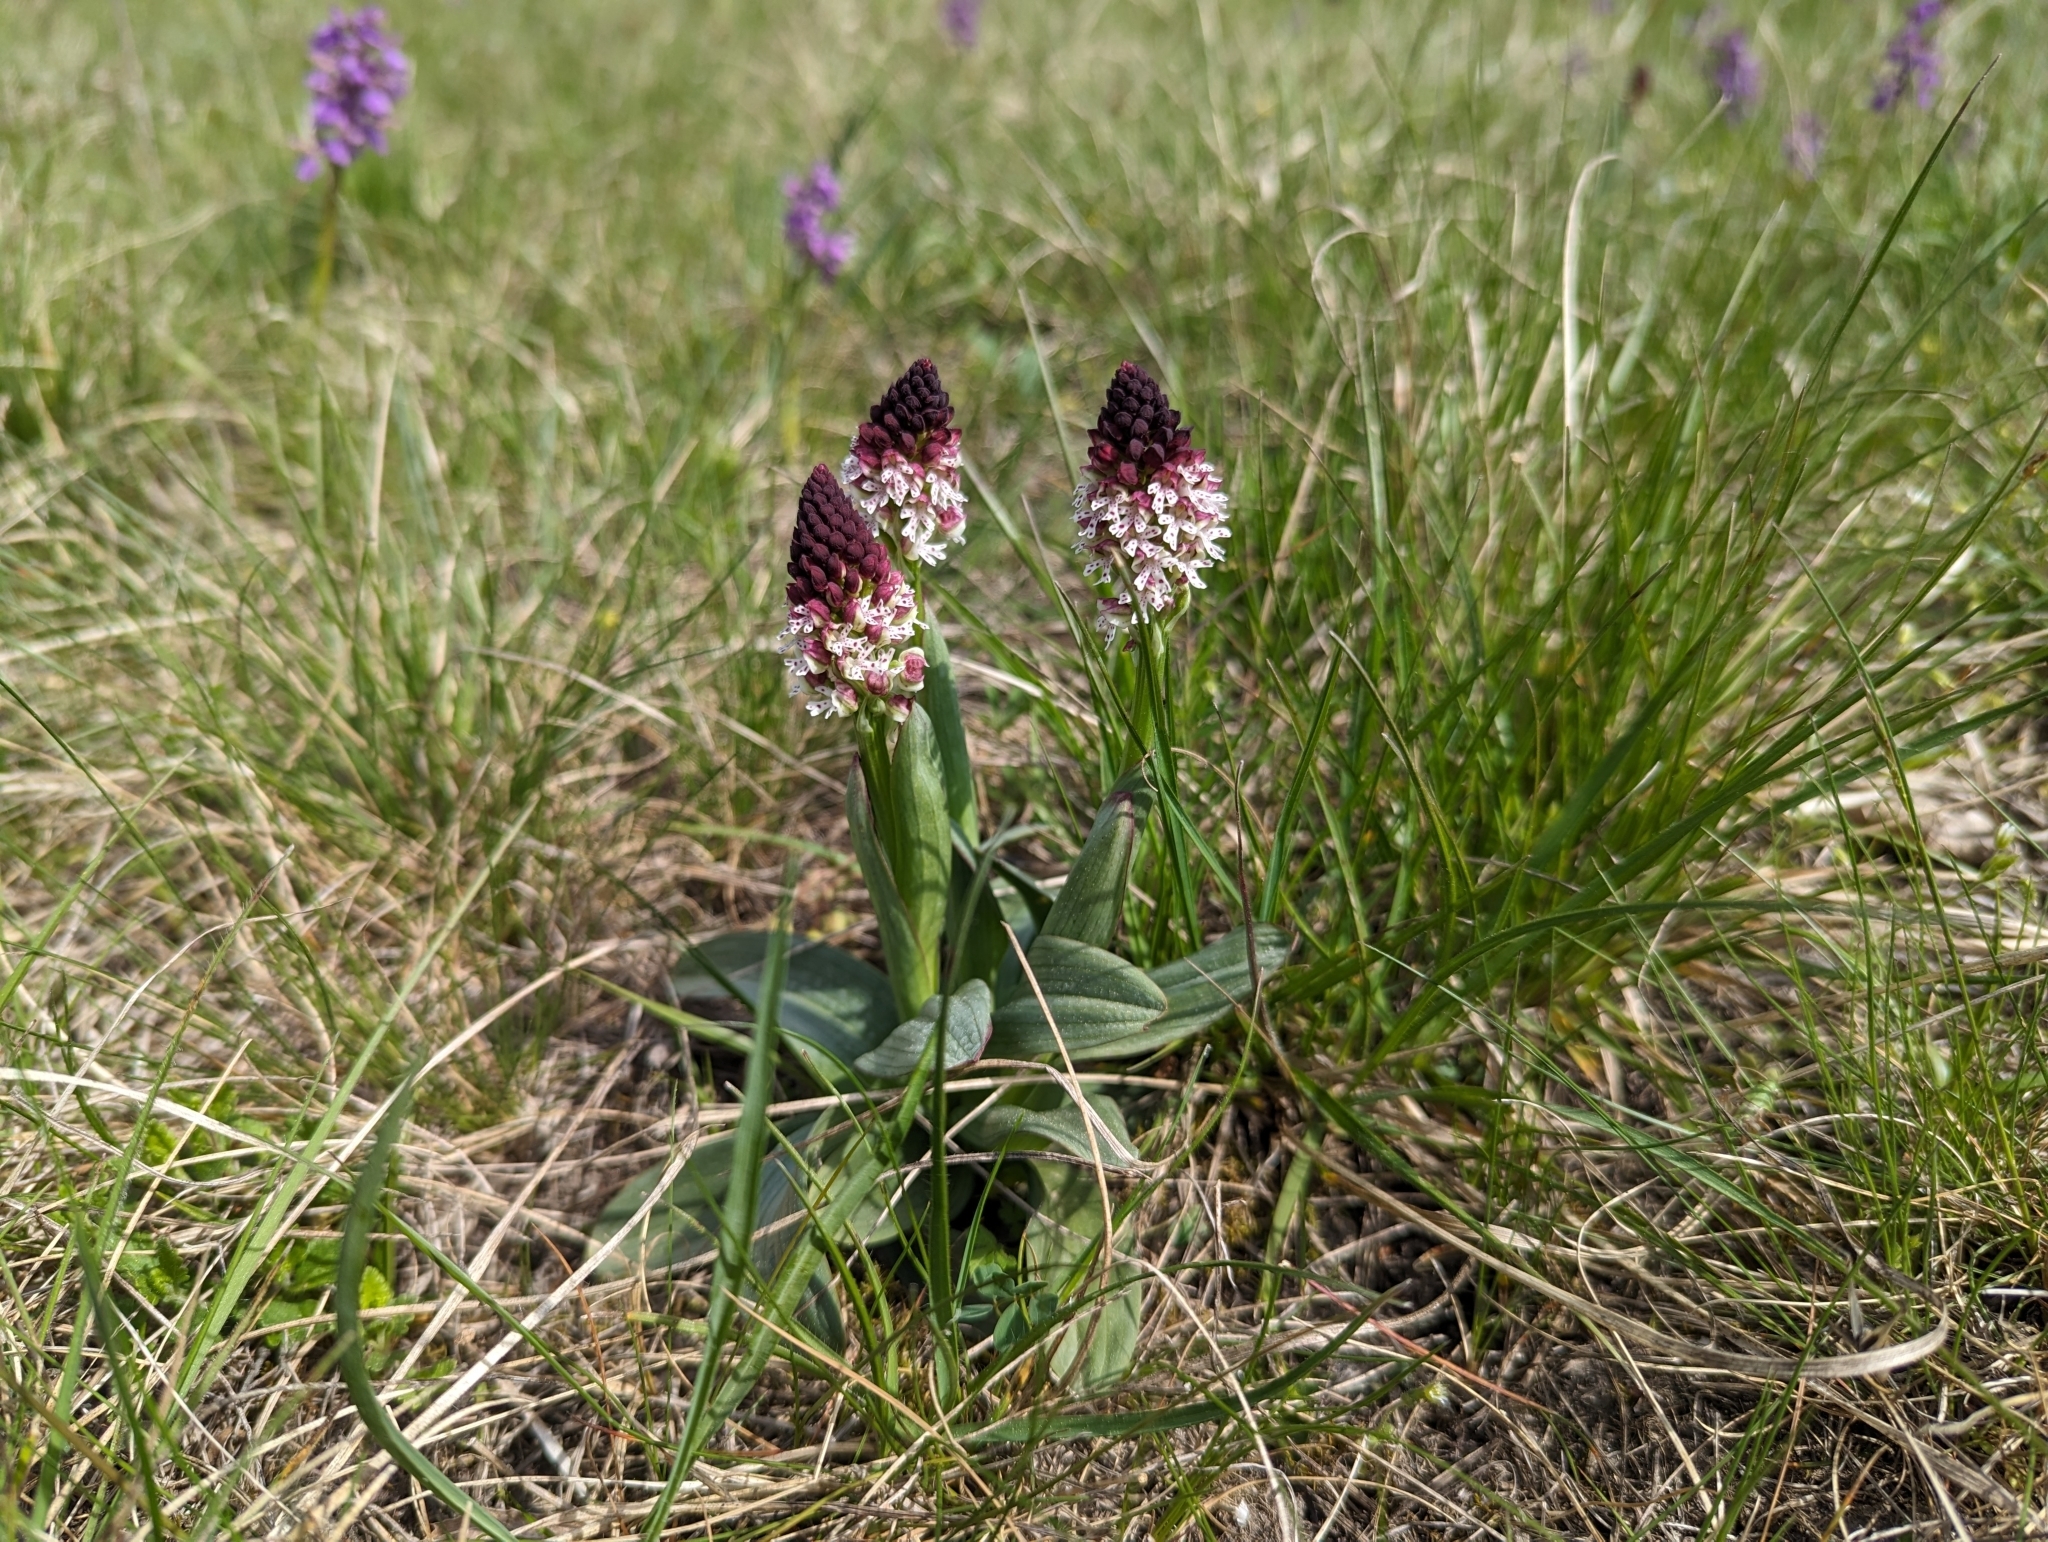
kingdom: Plantae
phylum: Tracheophyta
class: Liliopsida
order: Asparagales
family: Orchidaceae
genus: Neotinea
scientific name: Neotinea ustulata
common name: Burnt orchid
